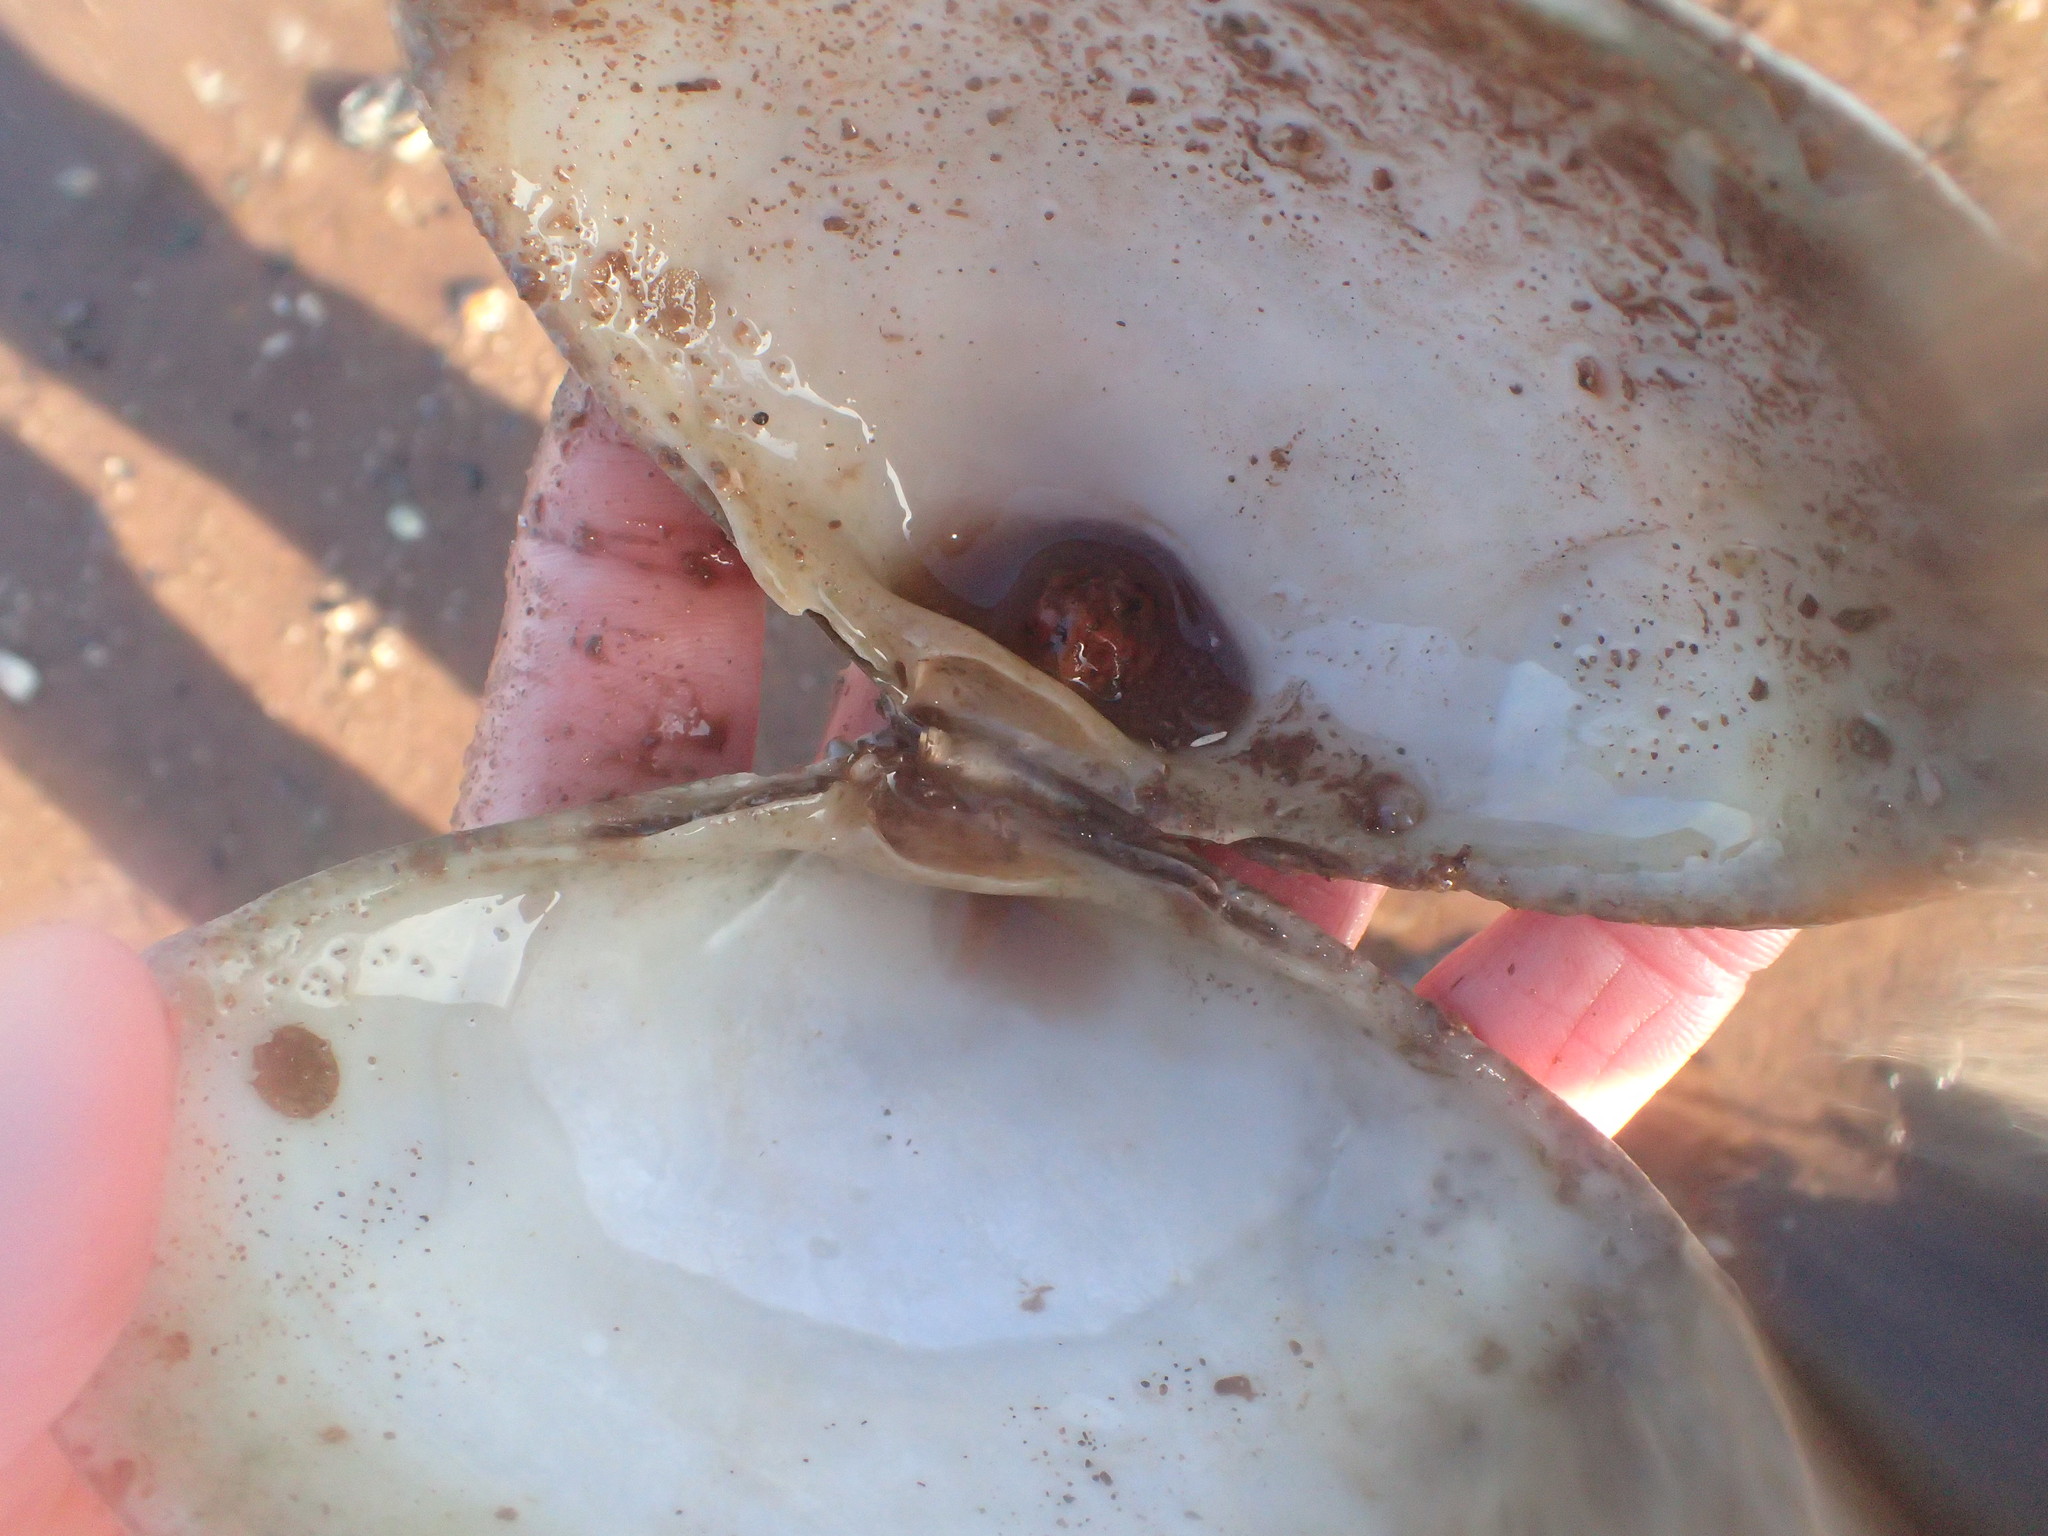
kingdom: Animalia
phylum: Mollusca
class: Bivalvia
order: Venerida
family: Mactridae
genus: Spisula
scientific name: Spisula solidissima
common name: Atlantic surf clam
